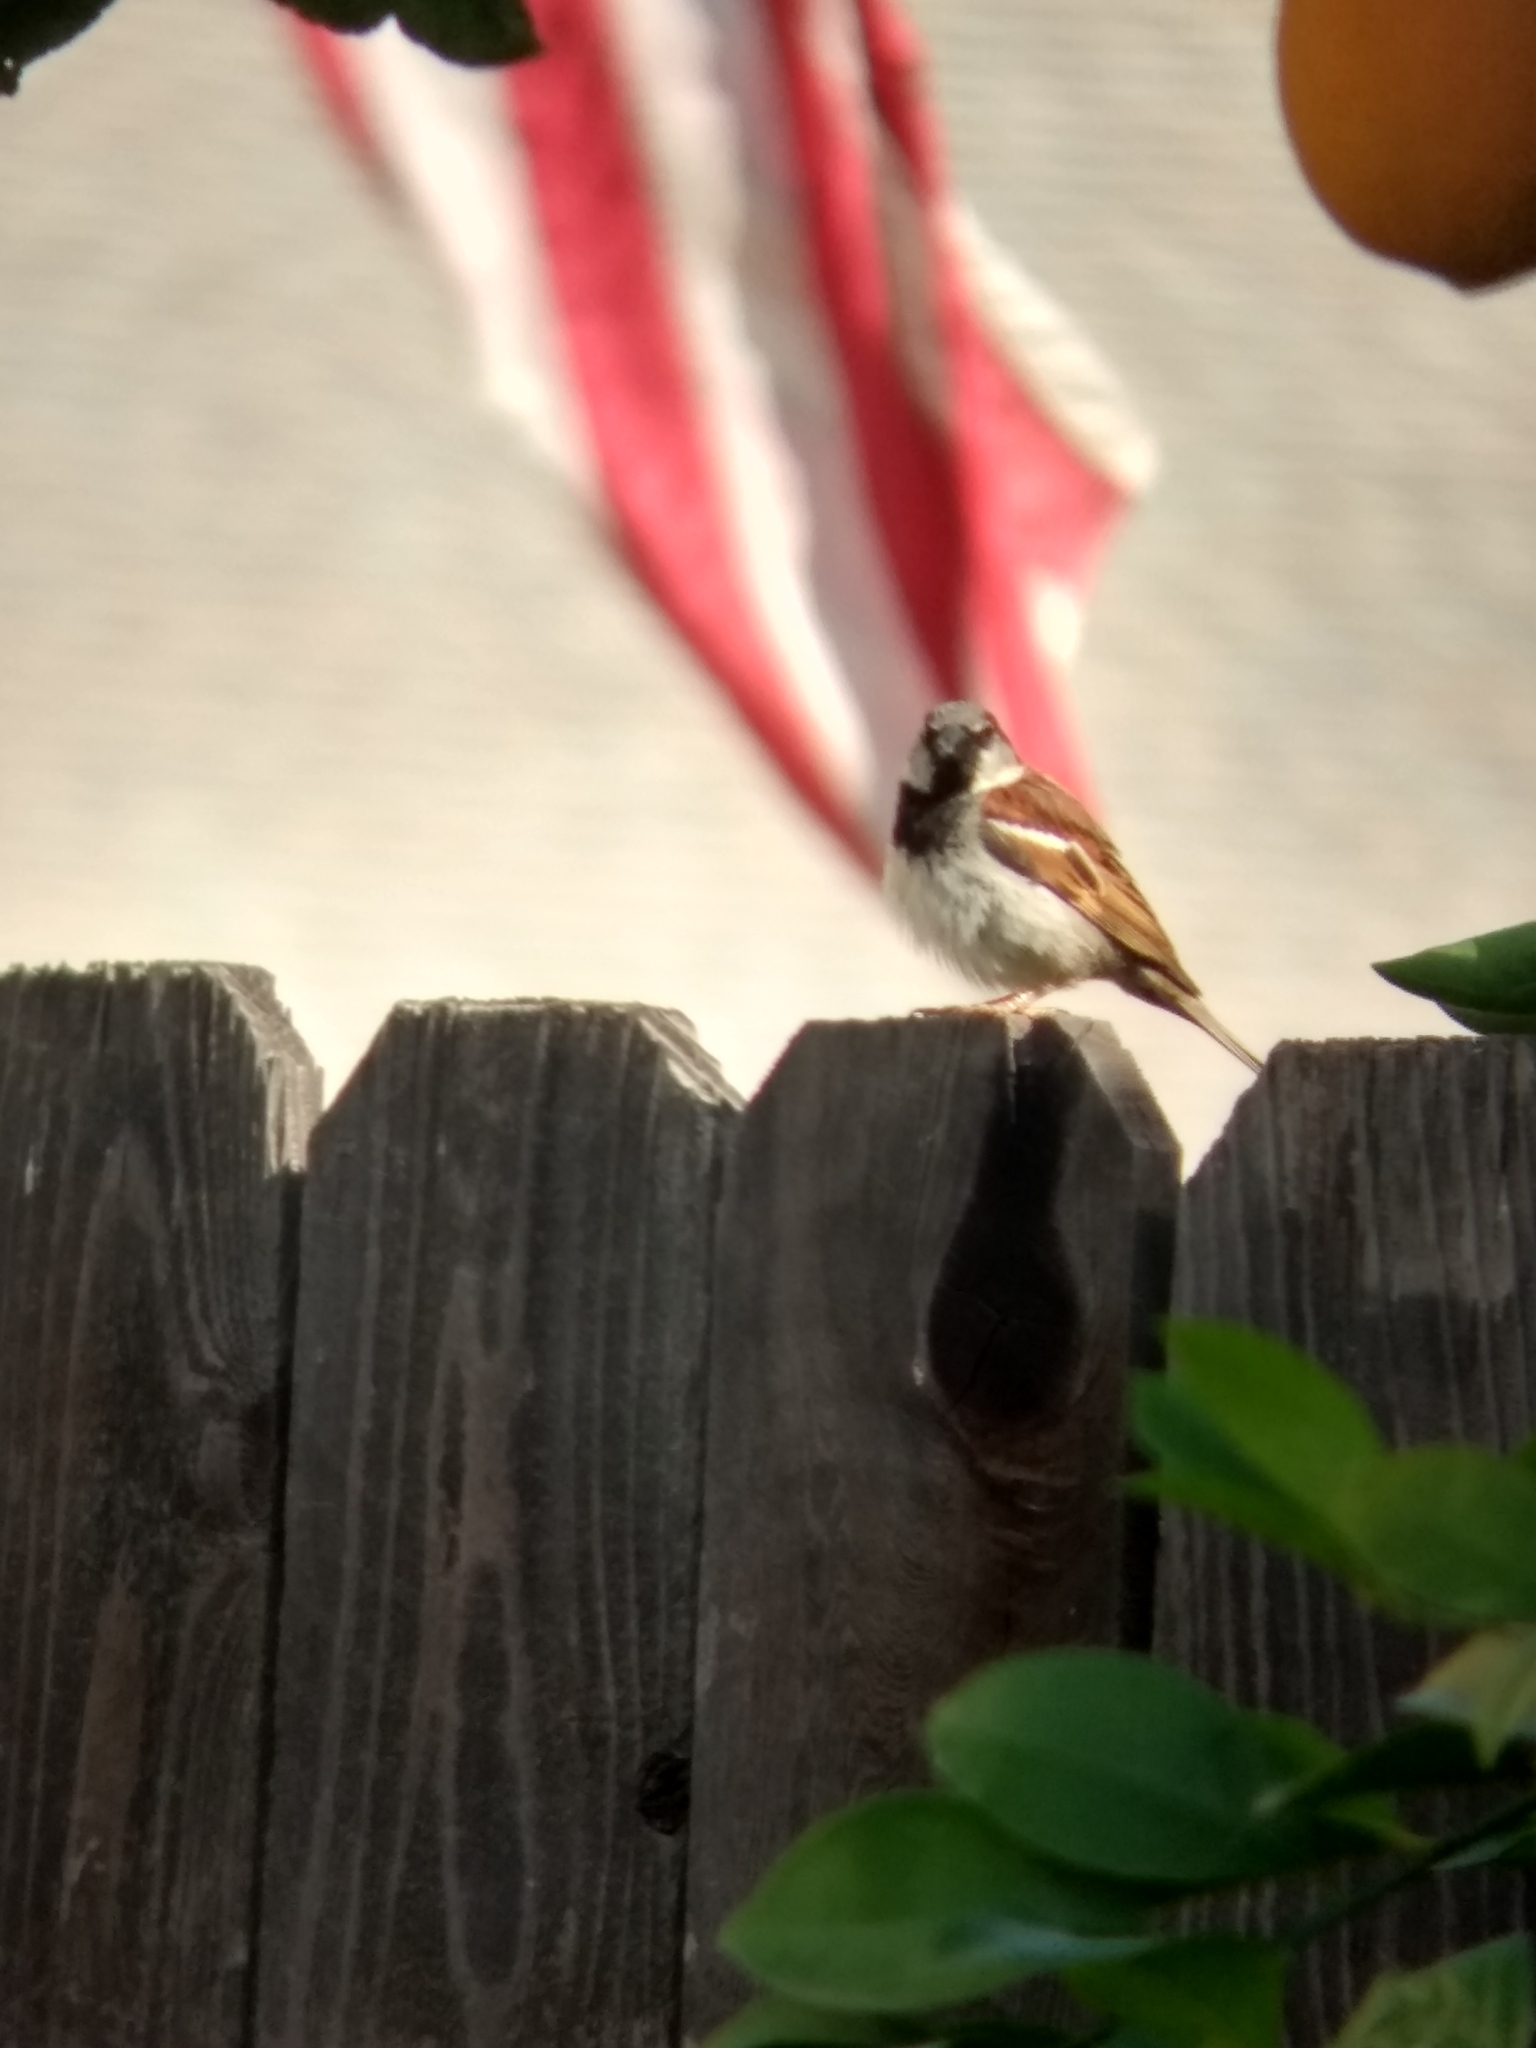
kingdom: Animalia
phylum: Chordata
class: Aves
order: Passeriformes
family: Passeridae
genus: Passer
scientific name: Passer domesticus
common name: House sparrow
